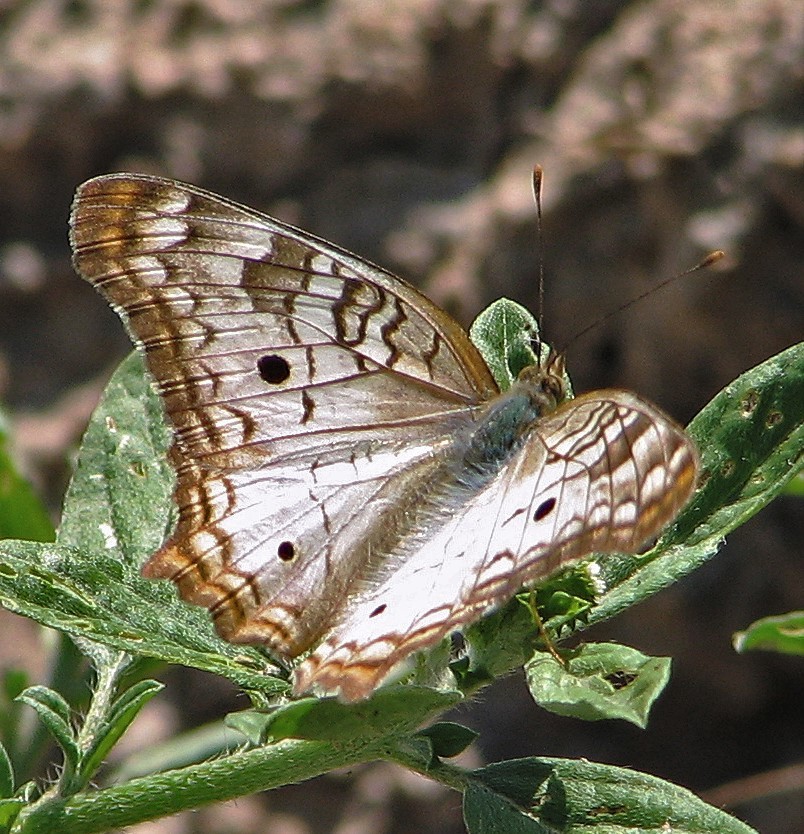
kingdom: Animalia
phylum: Arthropoda
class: Insecta
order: Lepidoptera
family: Nymphalidae
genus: Anartia
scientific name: Anartia jatrophae
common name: White peacock
